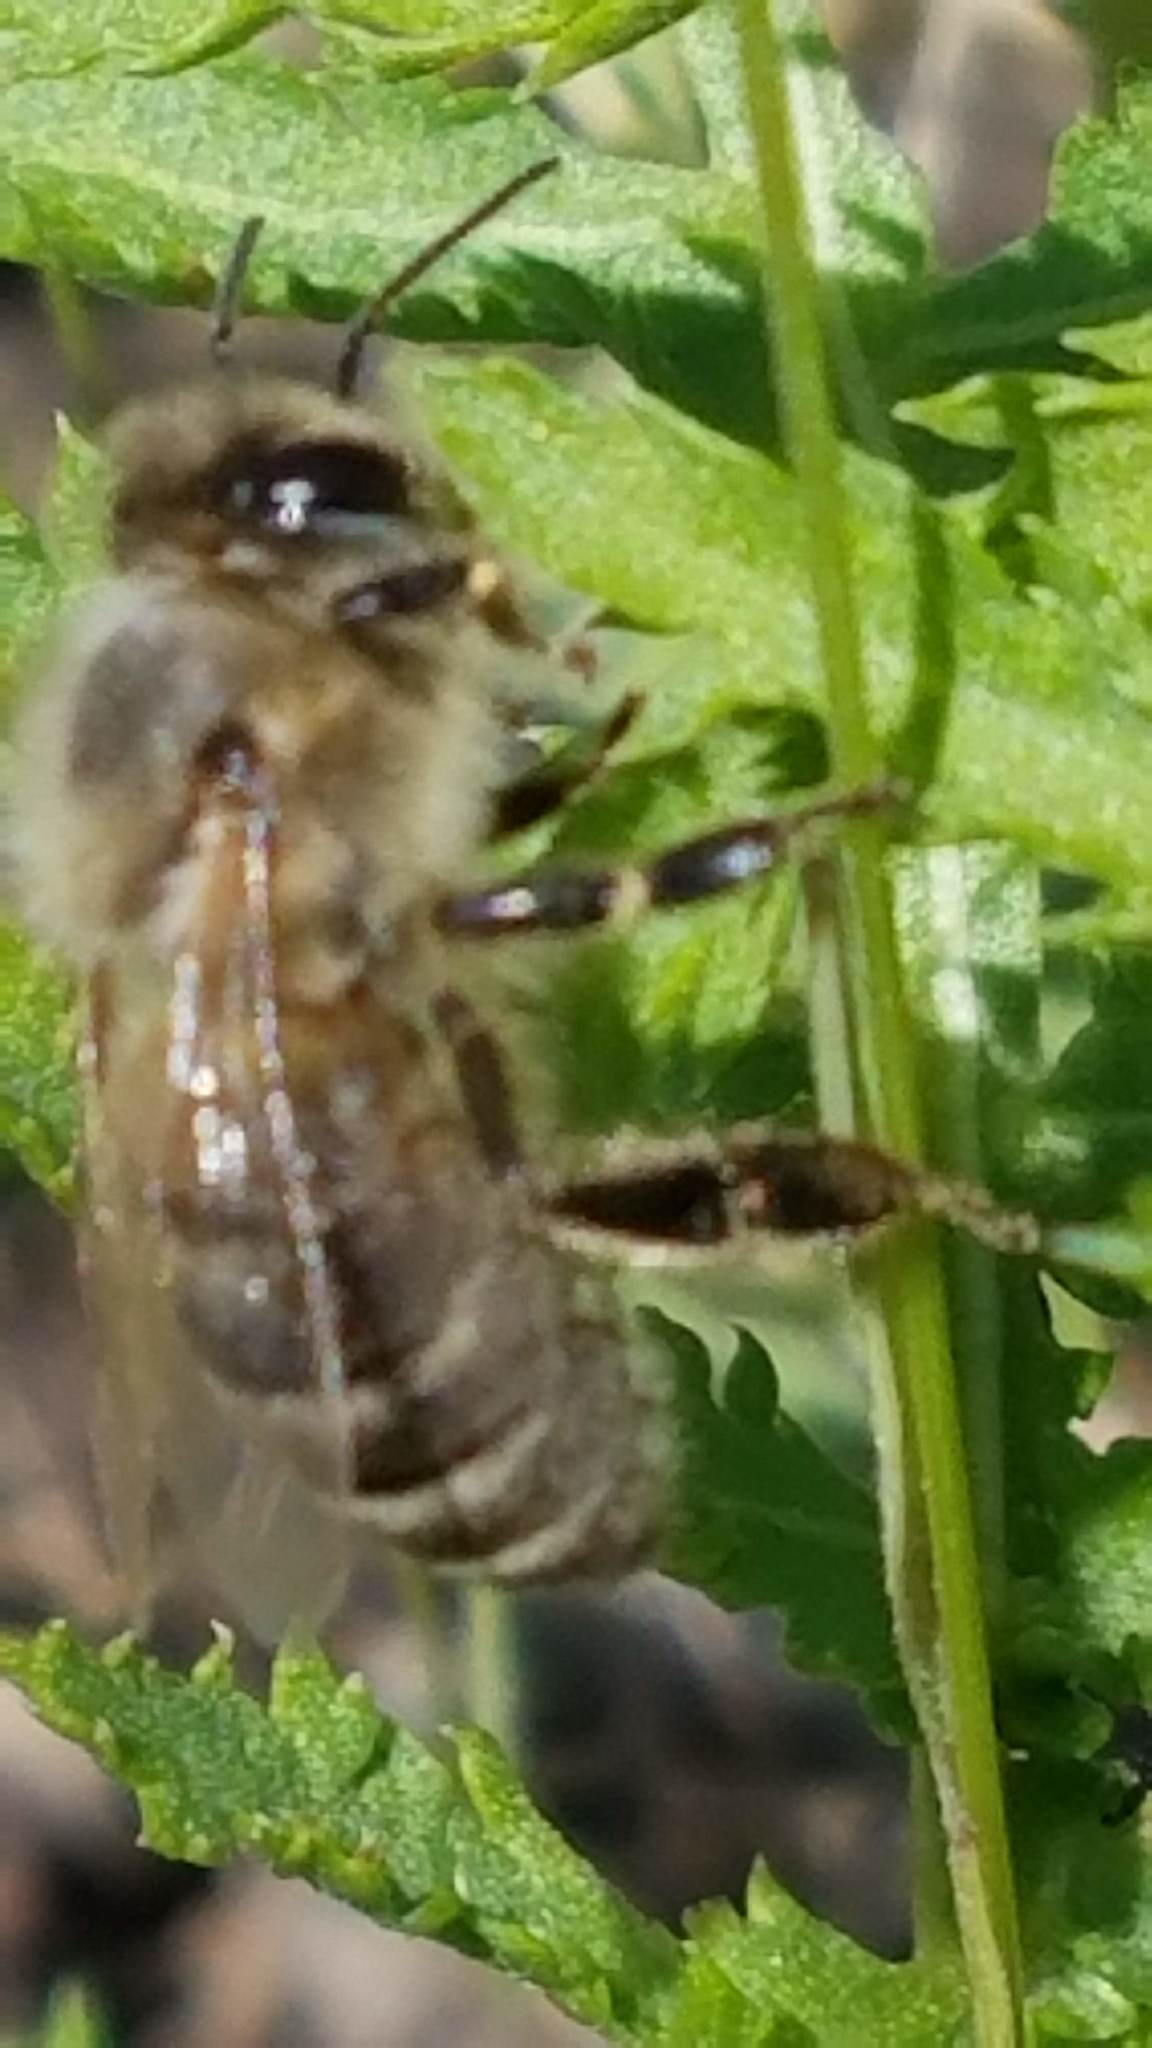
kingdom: Animalia
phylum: Arthropoda
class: Insecta
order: Hymenoptera
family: Apidae
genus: Apis
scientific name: Apis mellifera
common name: Honey bee
